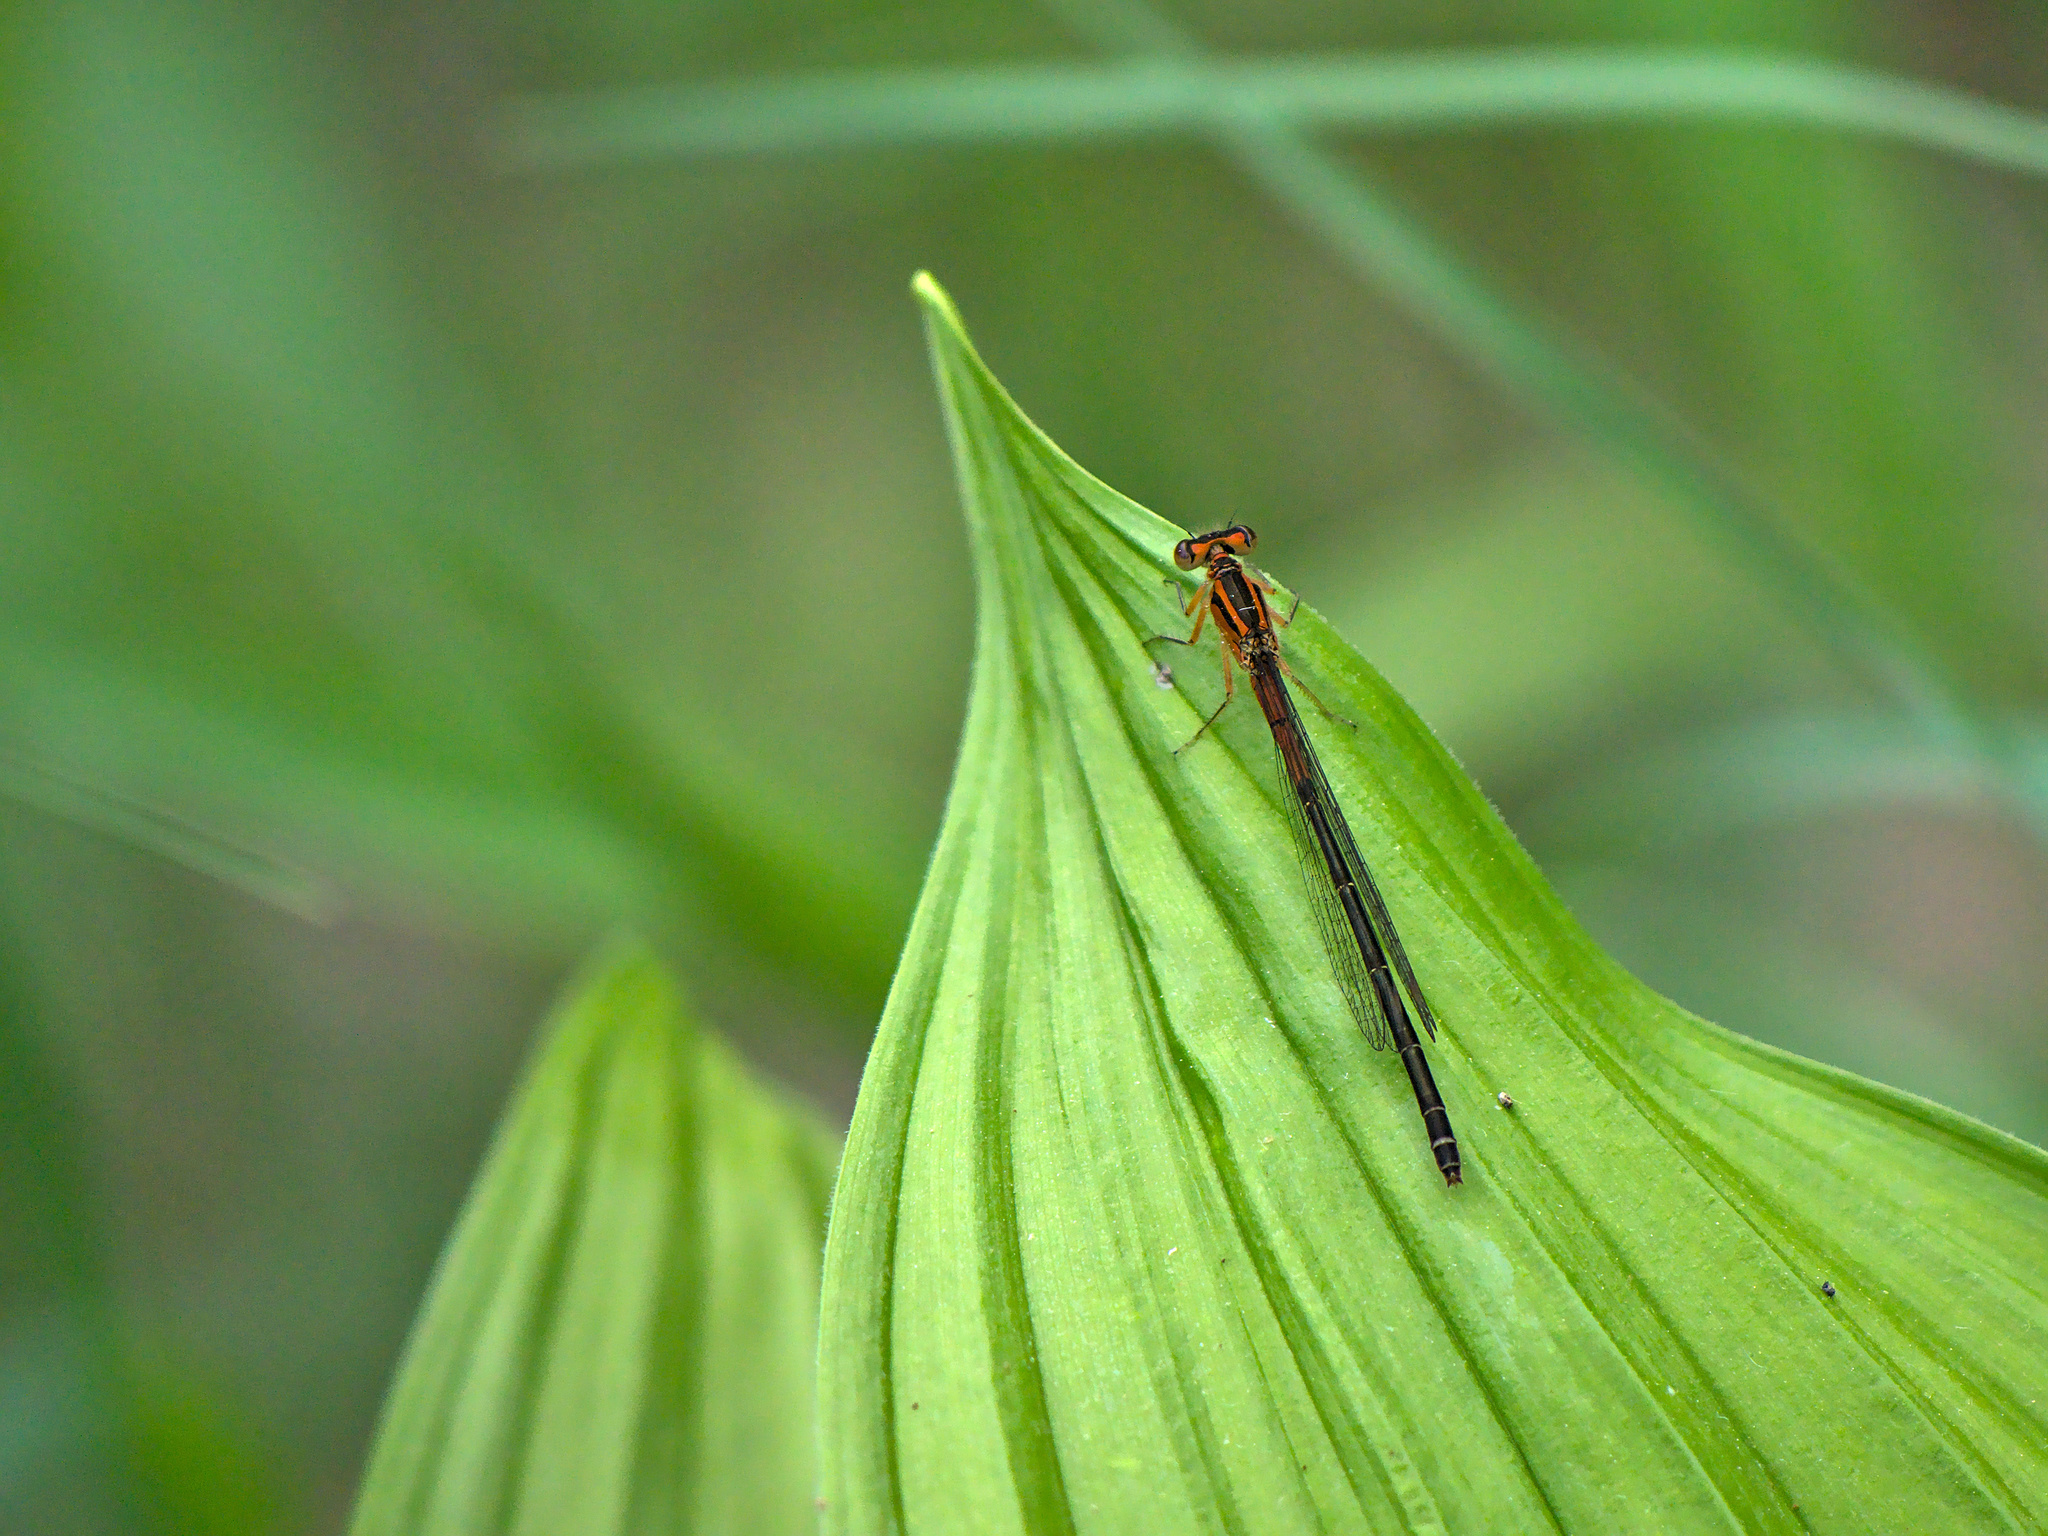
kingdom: Animalia
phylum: Arthropoda
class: Insecta
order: Odonata
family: Coenagrionidae
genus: Ischnura
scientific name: Ischnura verticalis
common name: Eastern forktail
